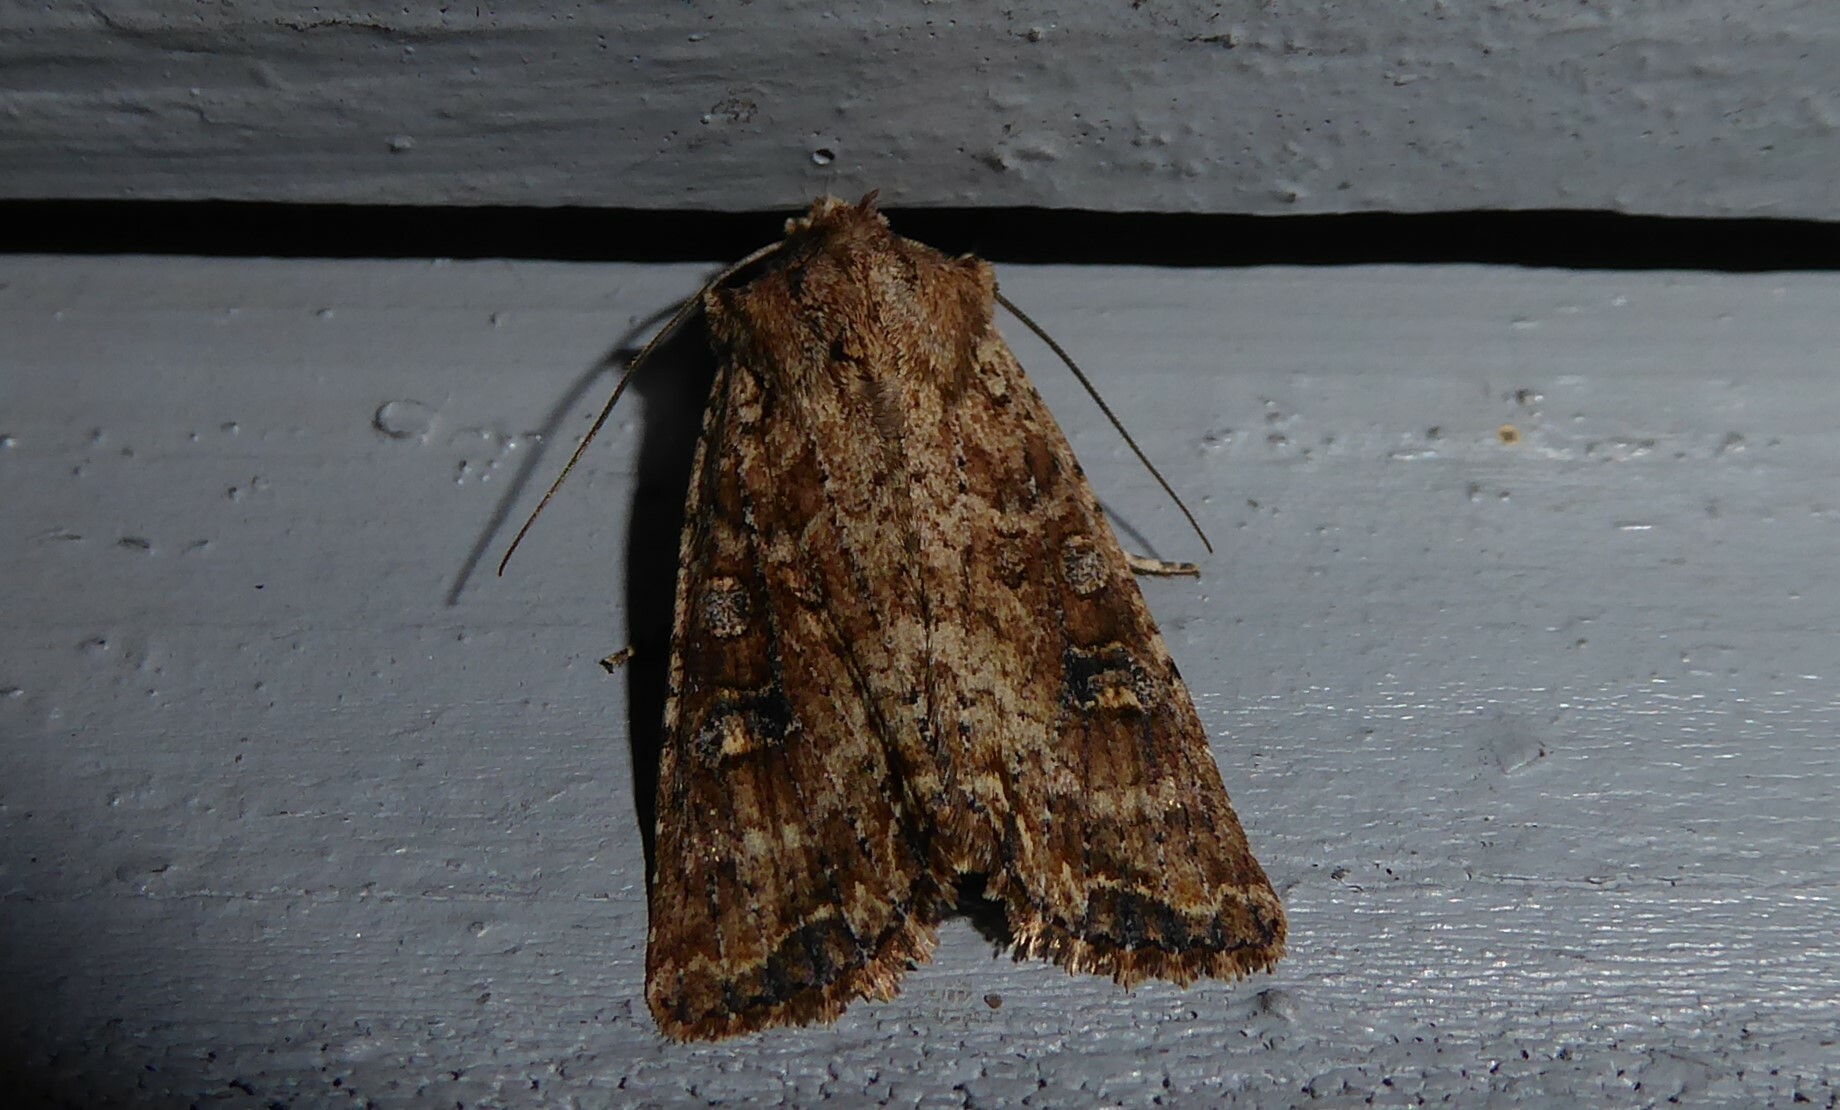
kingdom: Animalia
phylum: Arthropoda
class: Insecta
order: Lepidoptera
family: Noctuidae
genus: Ichneutica
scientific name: Ichneutica morosa
